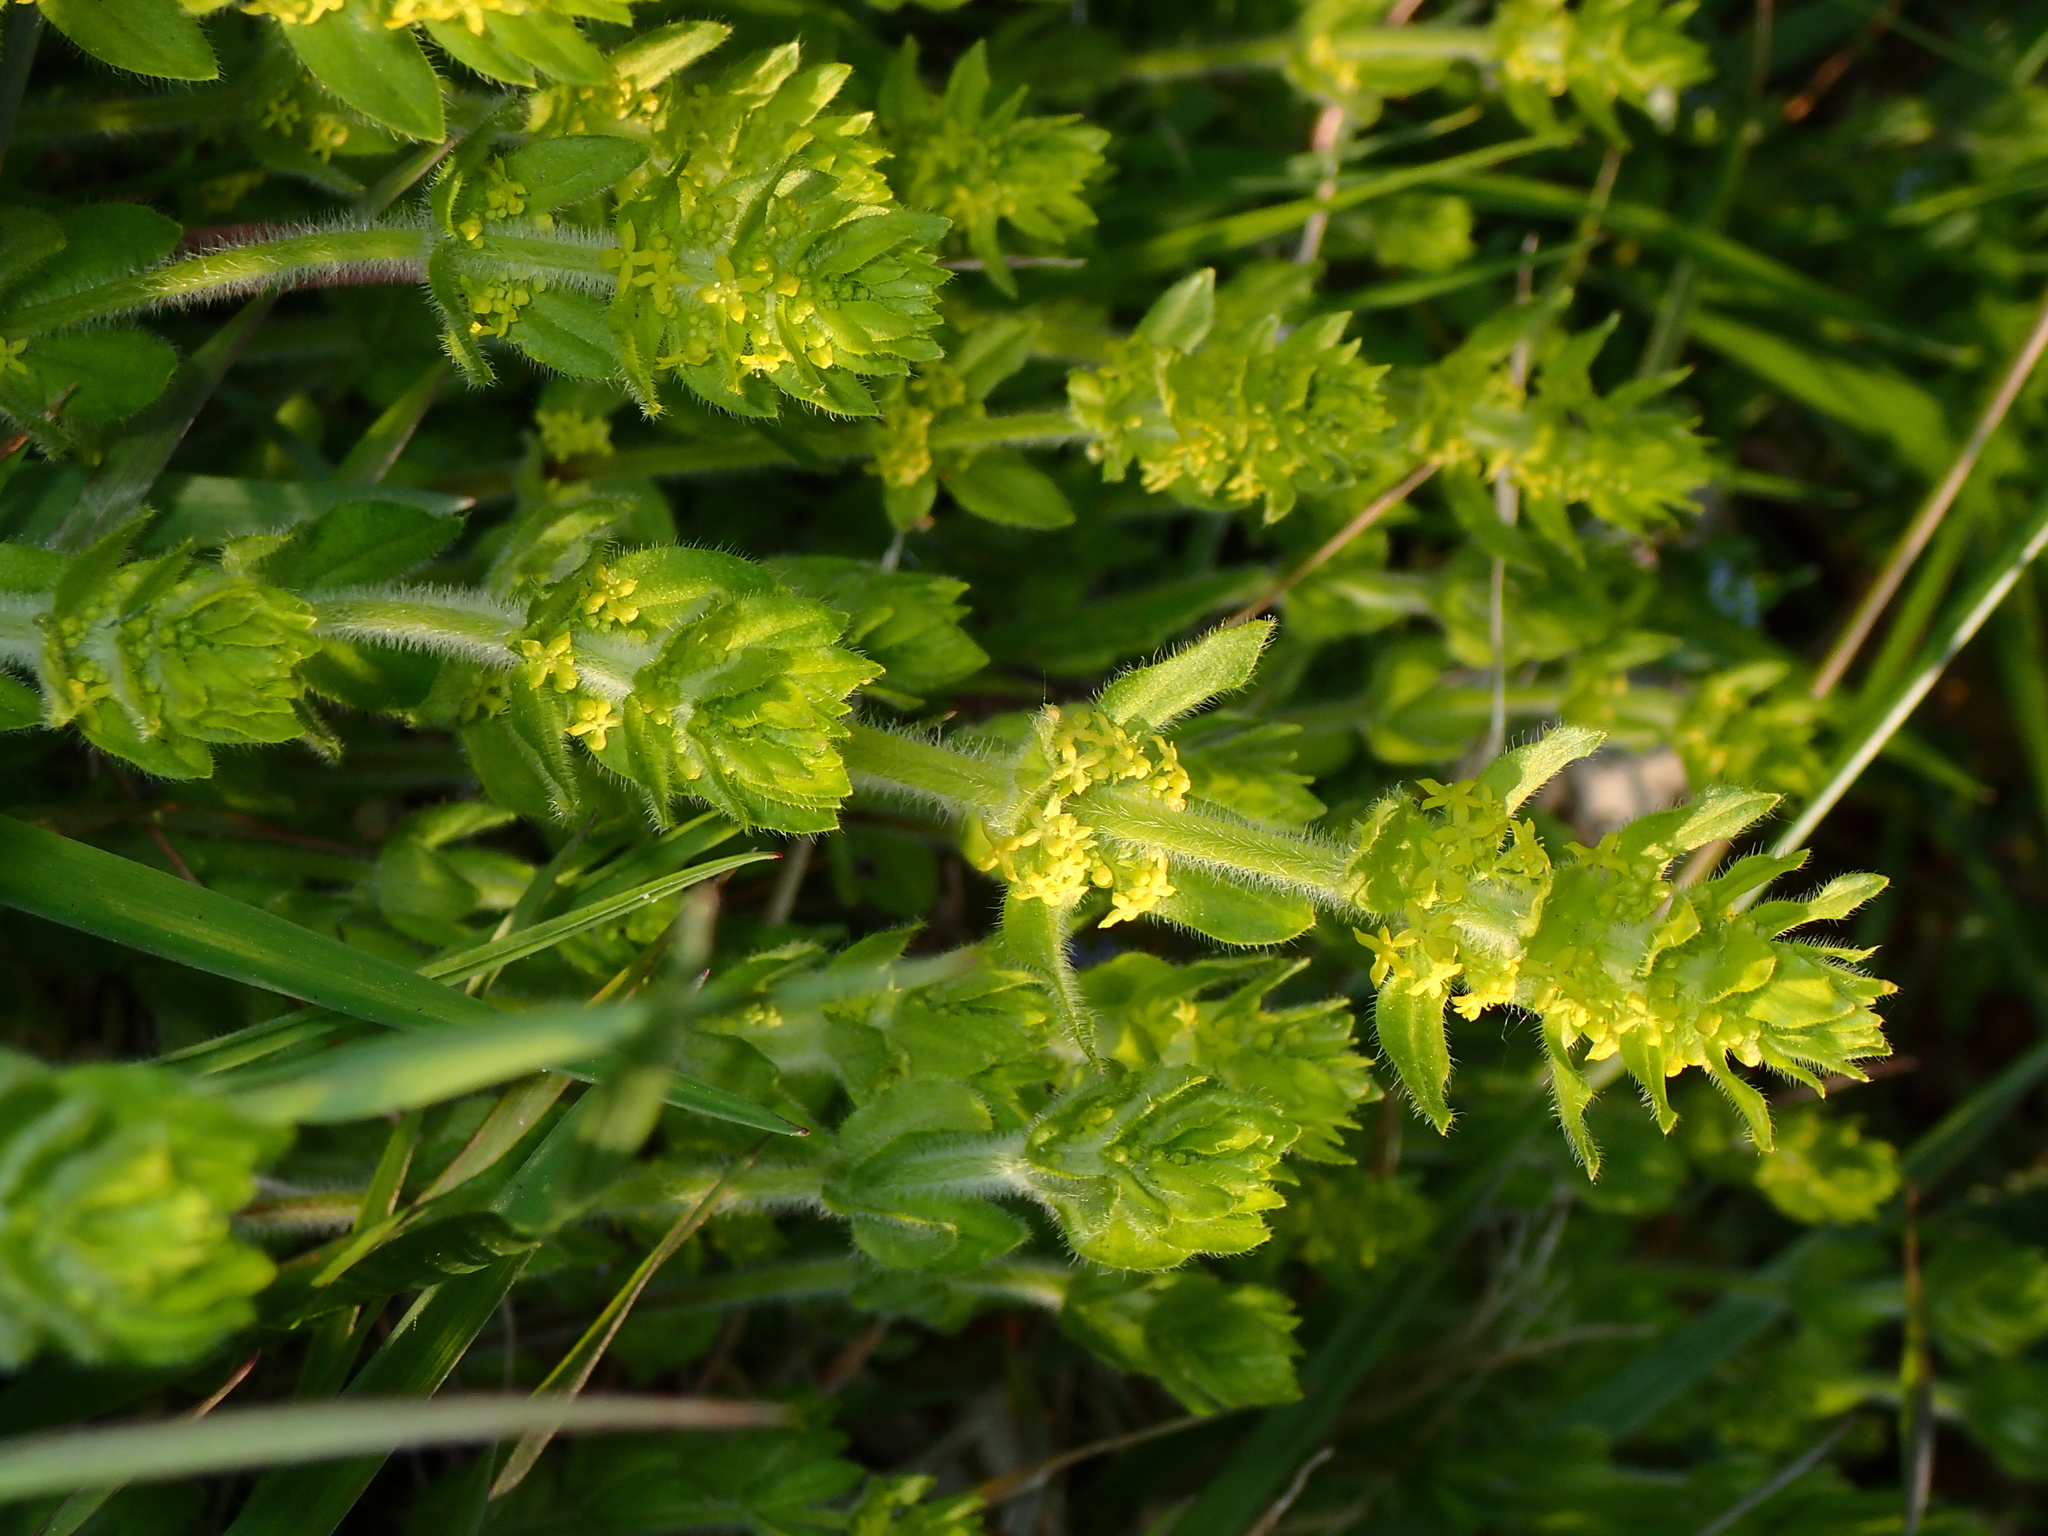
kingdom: Plantae
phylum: Tracheophyta
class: Magnoliopsida
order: Gentianales
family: Rubiaceae
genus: Cruciata
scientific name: Cruciata laevipes
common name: Crosswort
